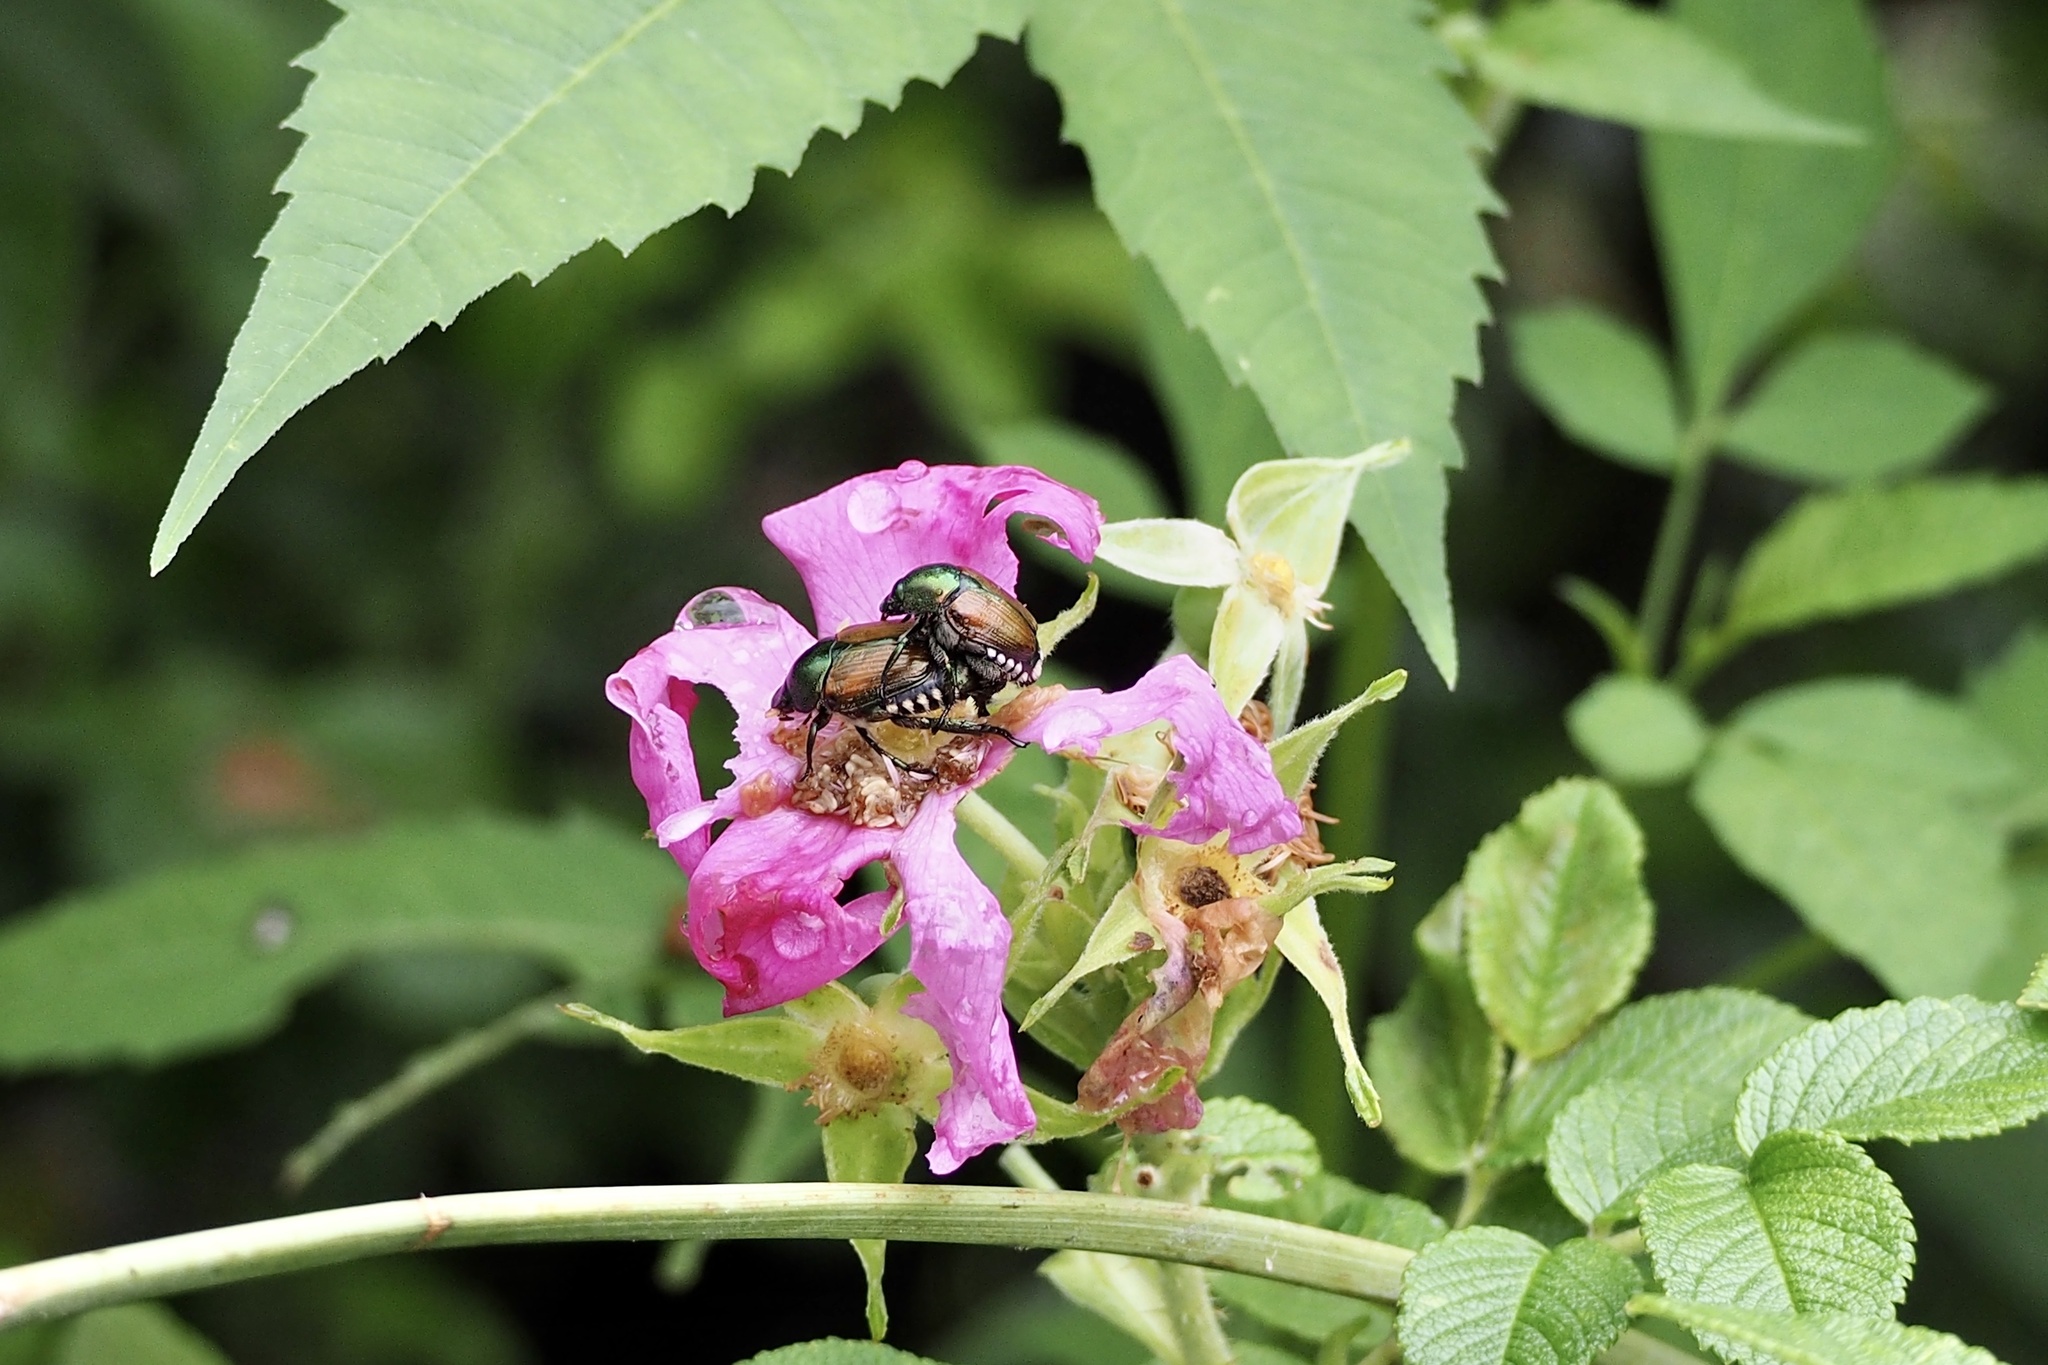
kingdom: Animalia
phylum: Arthropoda
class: Insecta
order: Coleoptera
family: Scarabaeidae
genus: Popillia
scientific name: Popillia japonica
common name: Japanese beetle
